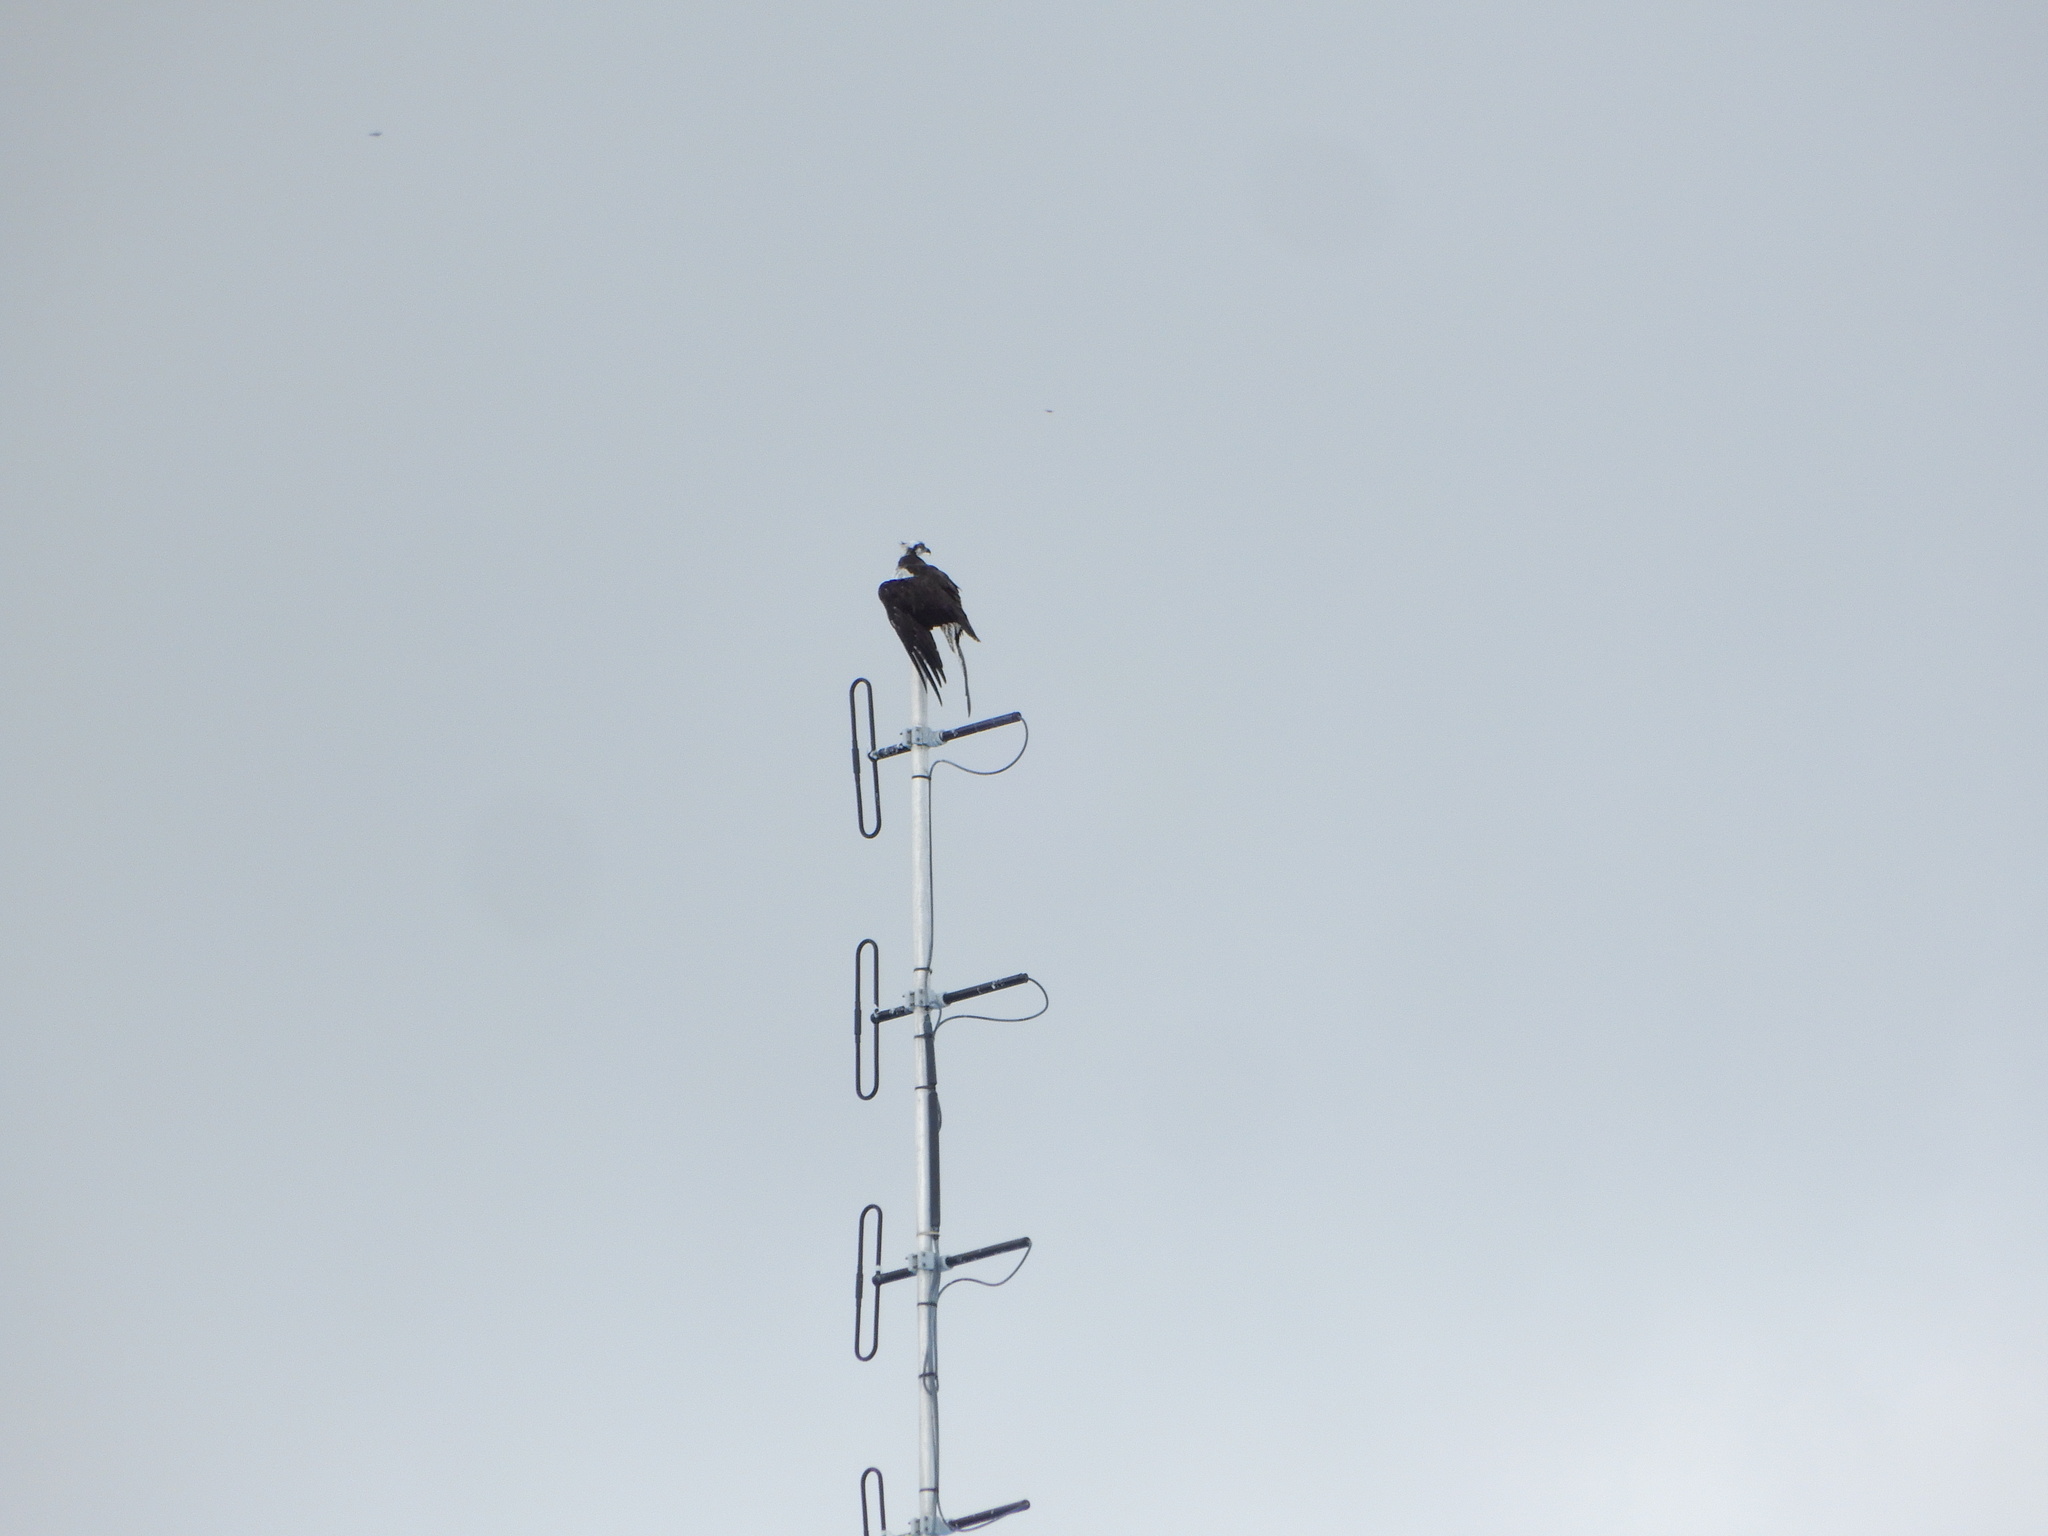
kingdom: Animalia
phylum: Chordata
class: Aves
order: Accipitriformes
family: Pandionidae
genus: Pandion
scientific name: Pandion haliaetus
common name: Osprey
